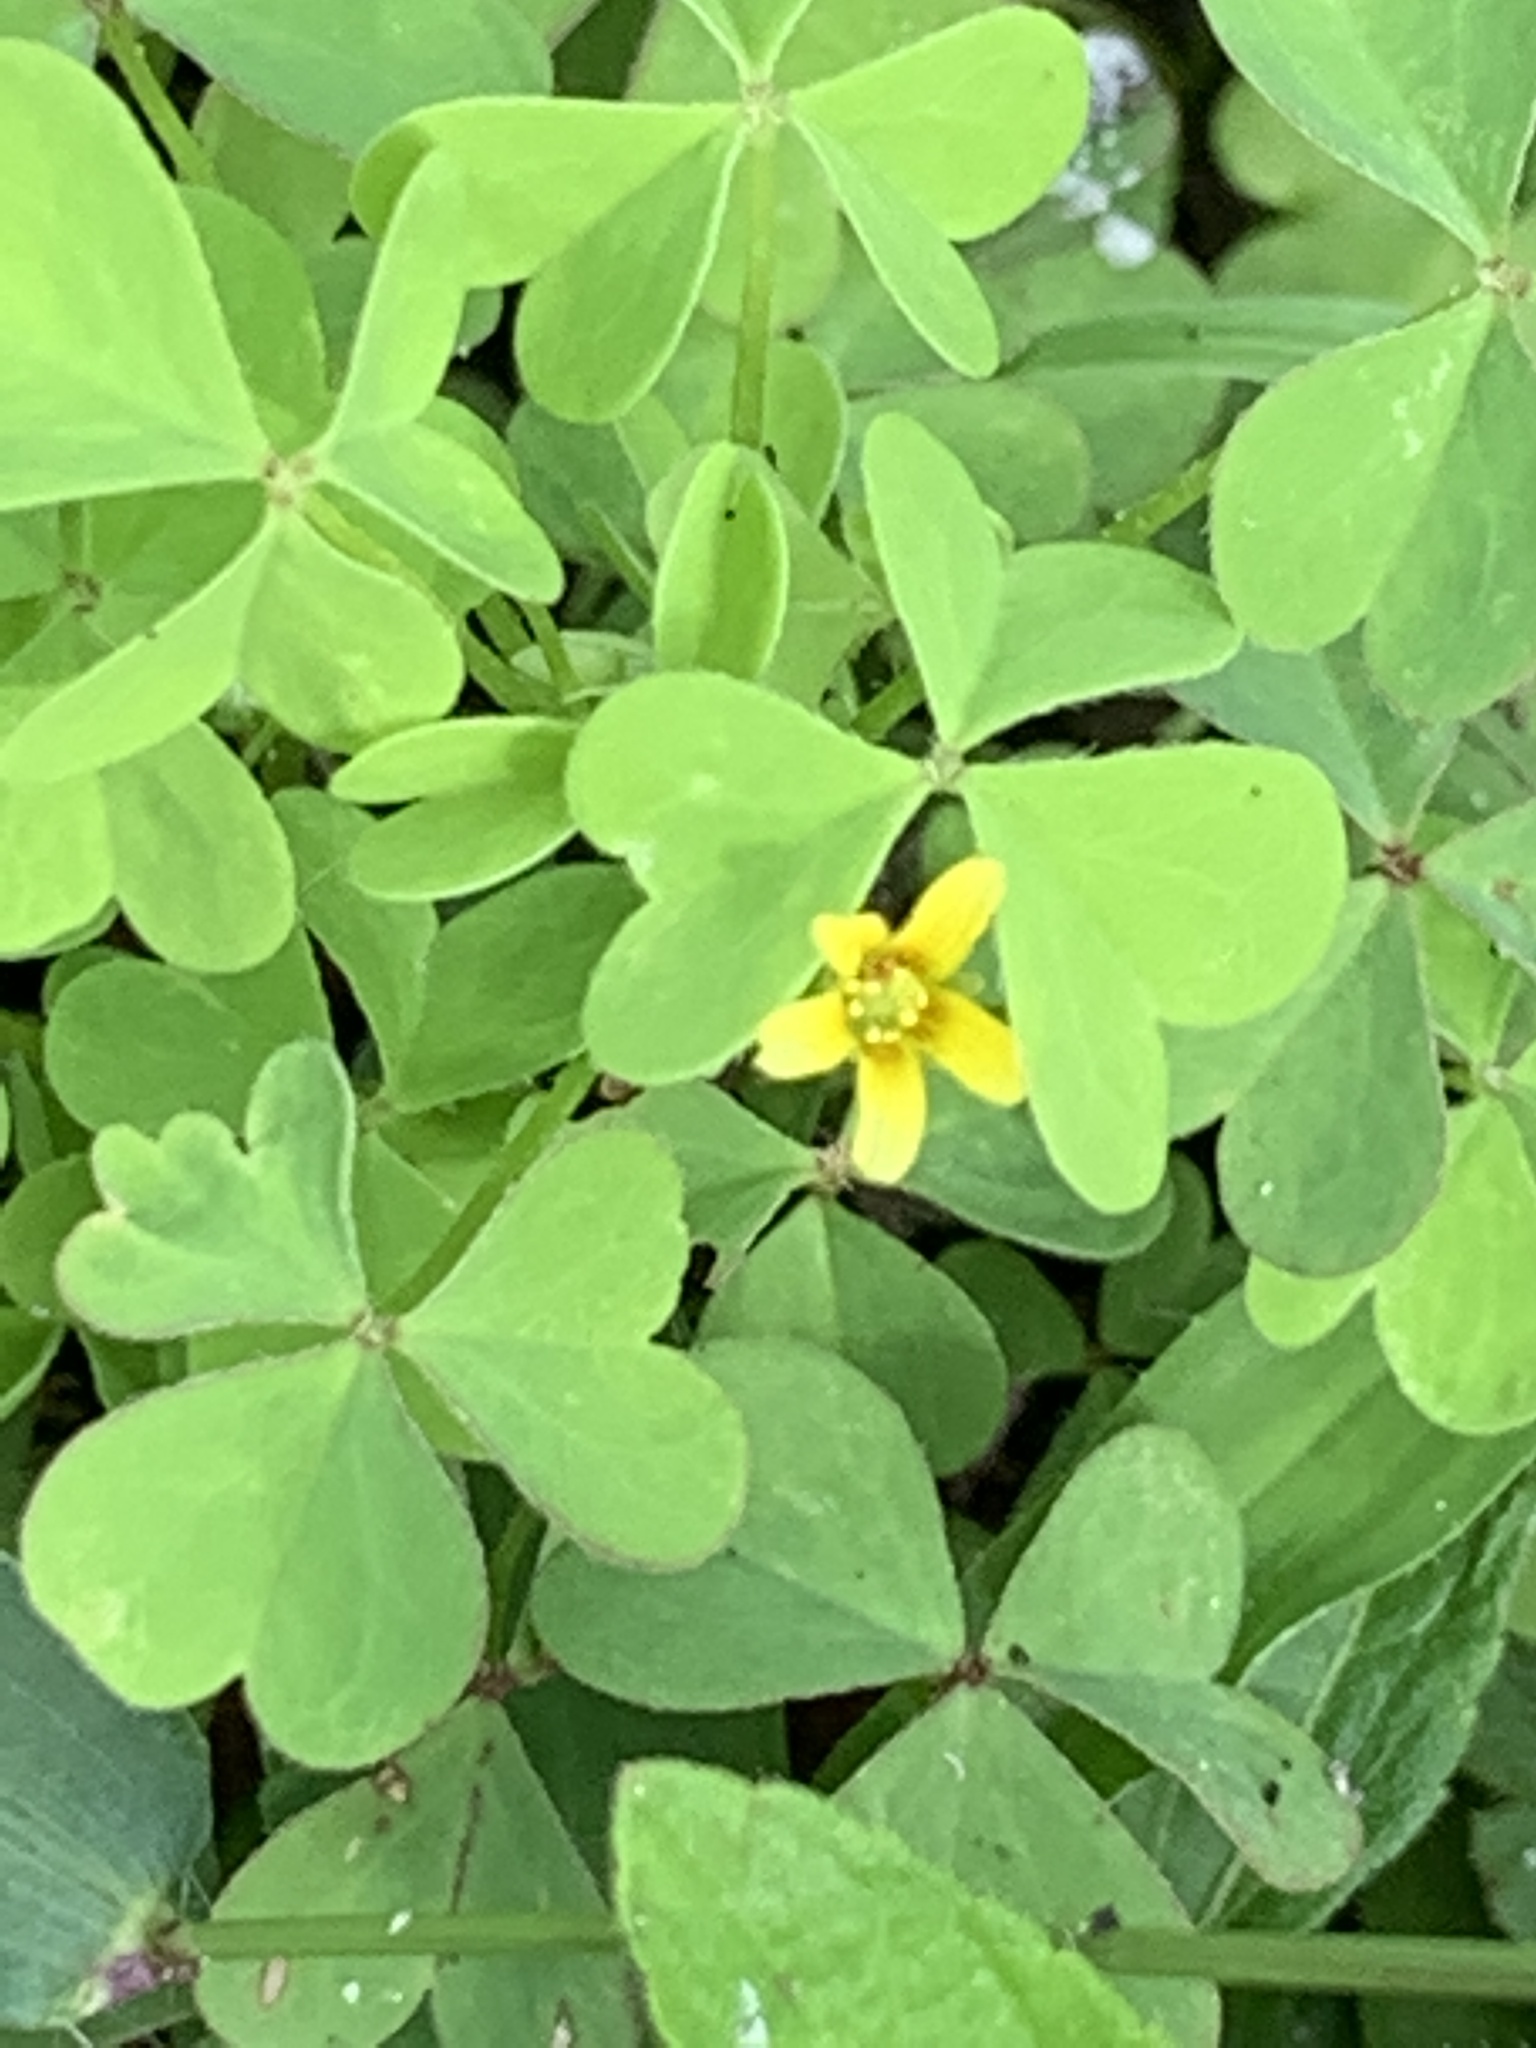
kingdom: Plantae
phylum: Tracheophyta
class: Magnoliopsida
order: Oxalidales
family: Oxalidaceae
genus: Oxalis
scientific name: Oxalis corniculata
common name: Procumbent yellow-sorrel
